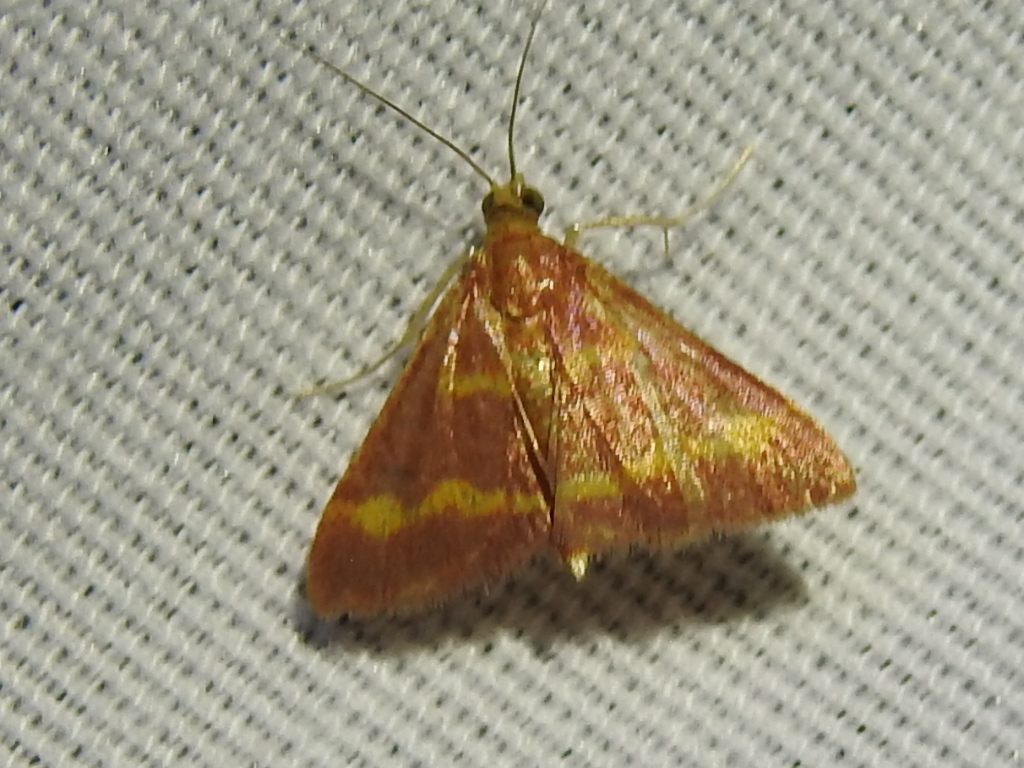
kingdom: Animalia
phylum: Arthropoda
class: Insecta
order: Lepidoptera
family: Crambidae
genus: Pyrausta
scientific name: Pyrausta tyralis
